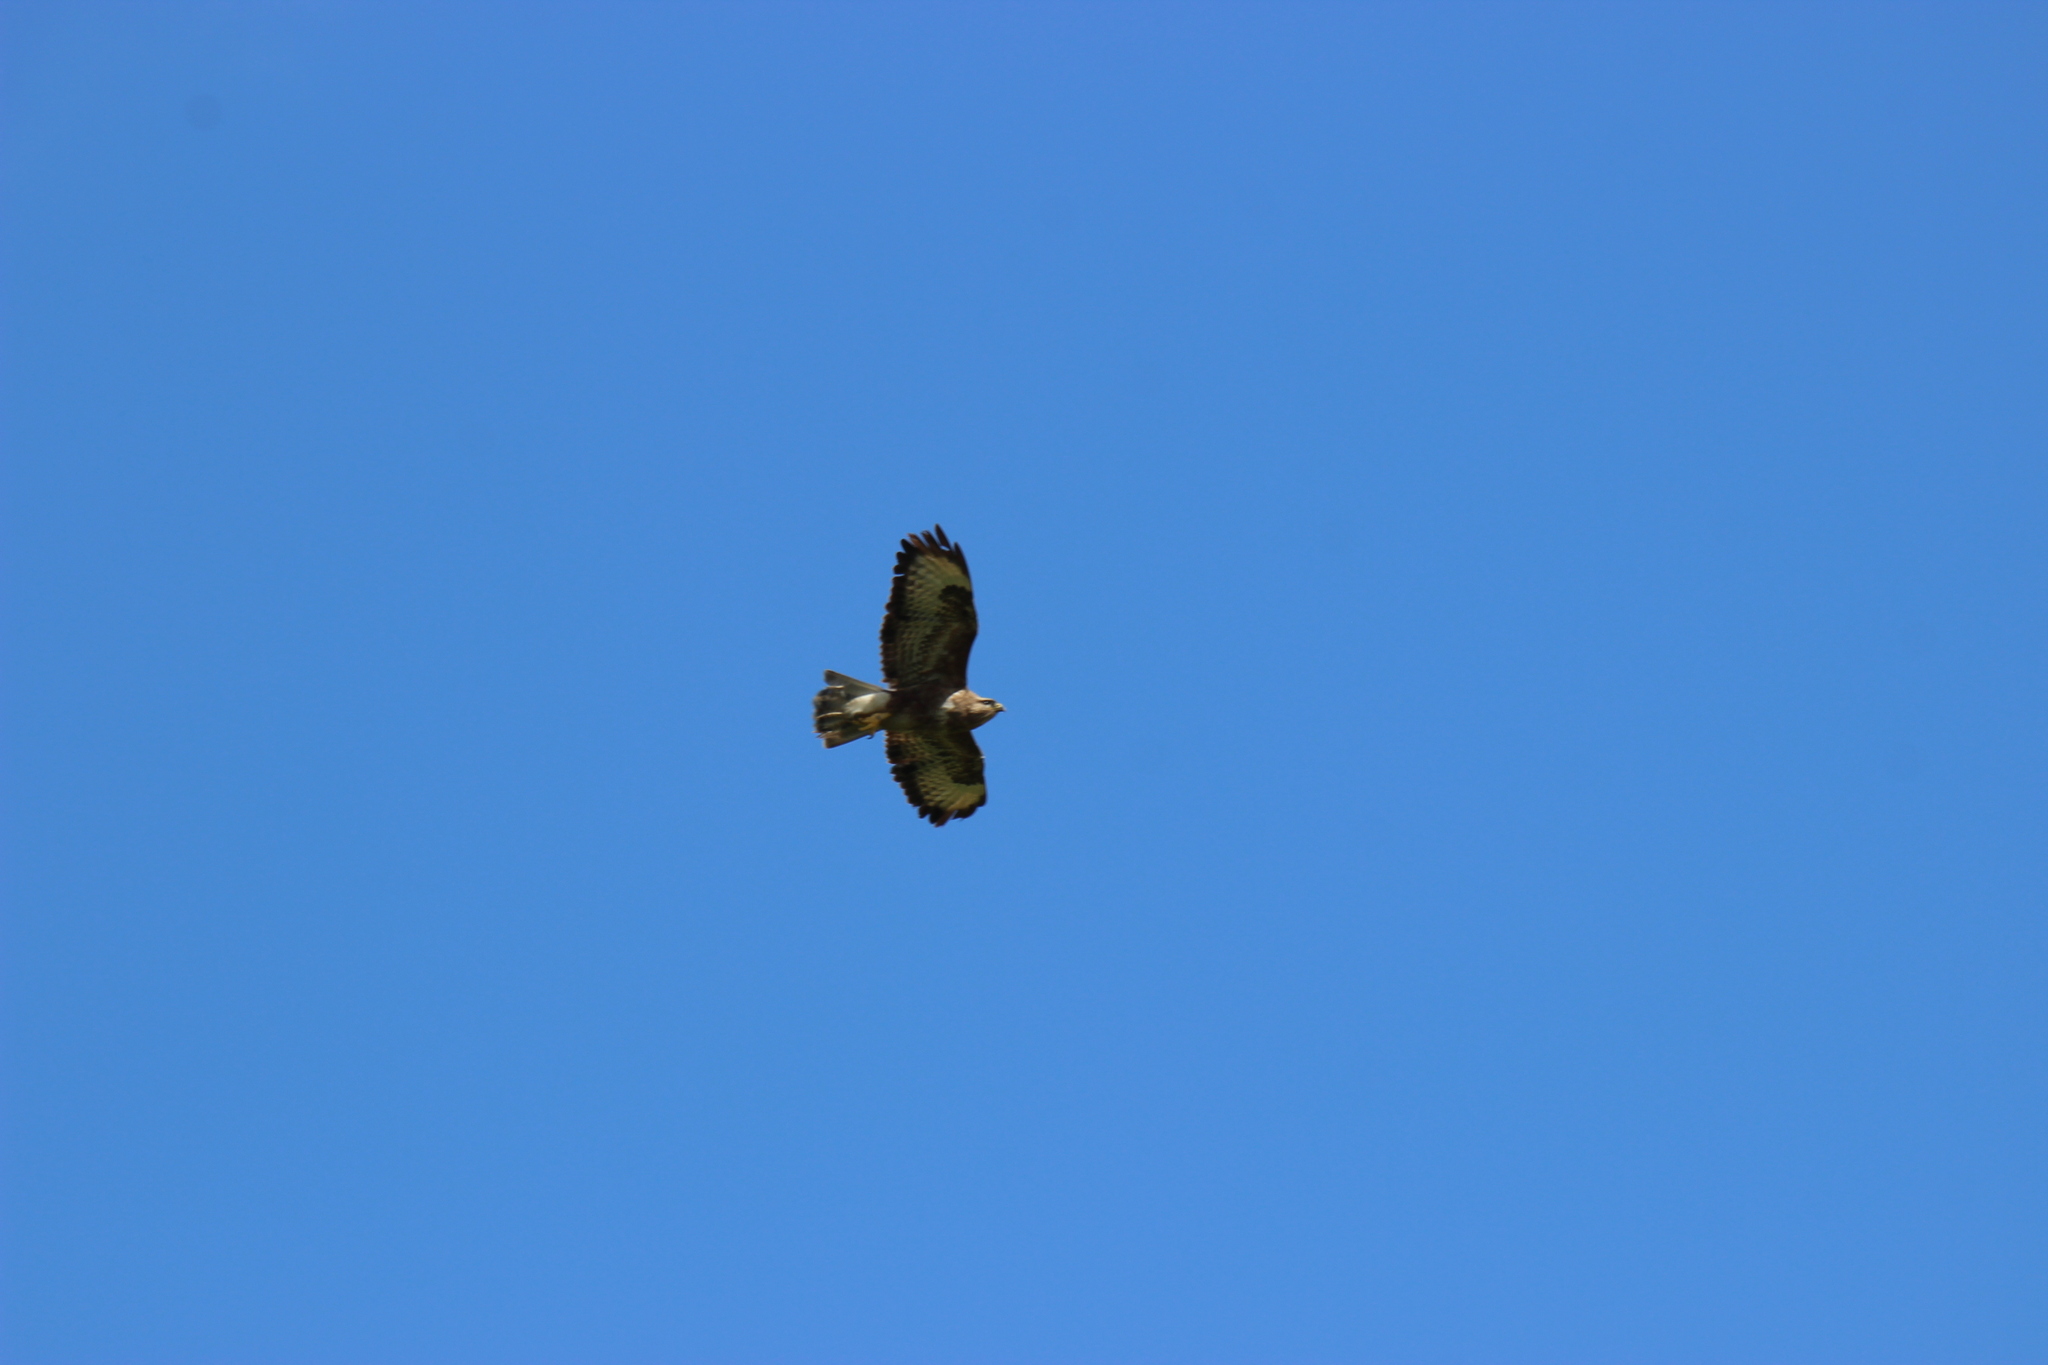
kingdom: Animalia
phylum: Chordata
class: Aves
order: Accipitriformes
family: Accipitridae
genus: Buteo
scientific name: Buteo buteo
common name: Common buzzard
